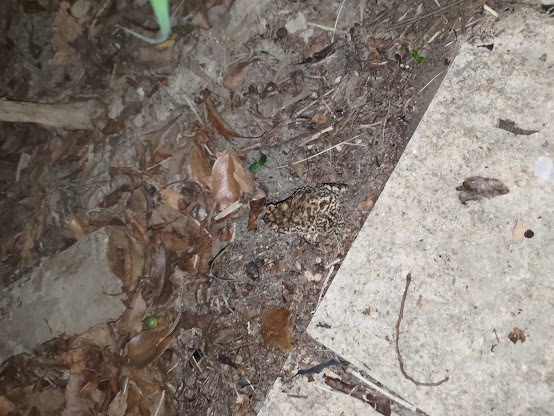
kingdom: Animalia
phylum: Chordata
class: Amphibia
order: Anura
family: Bufonidae
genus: Duttaphrynus
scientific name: Duttaphrynus melanostictus
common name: Common sunda toad
